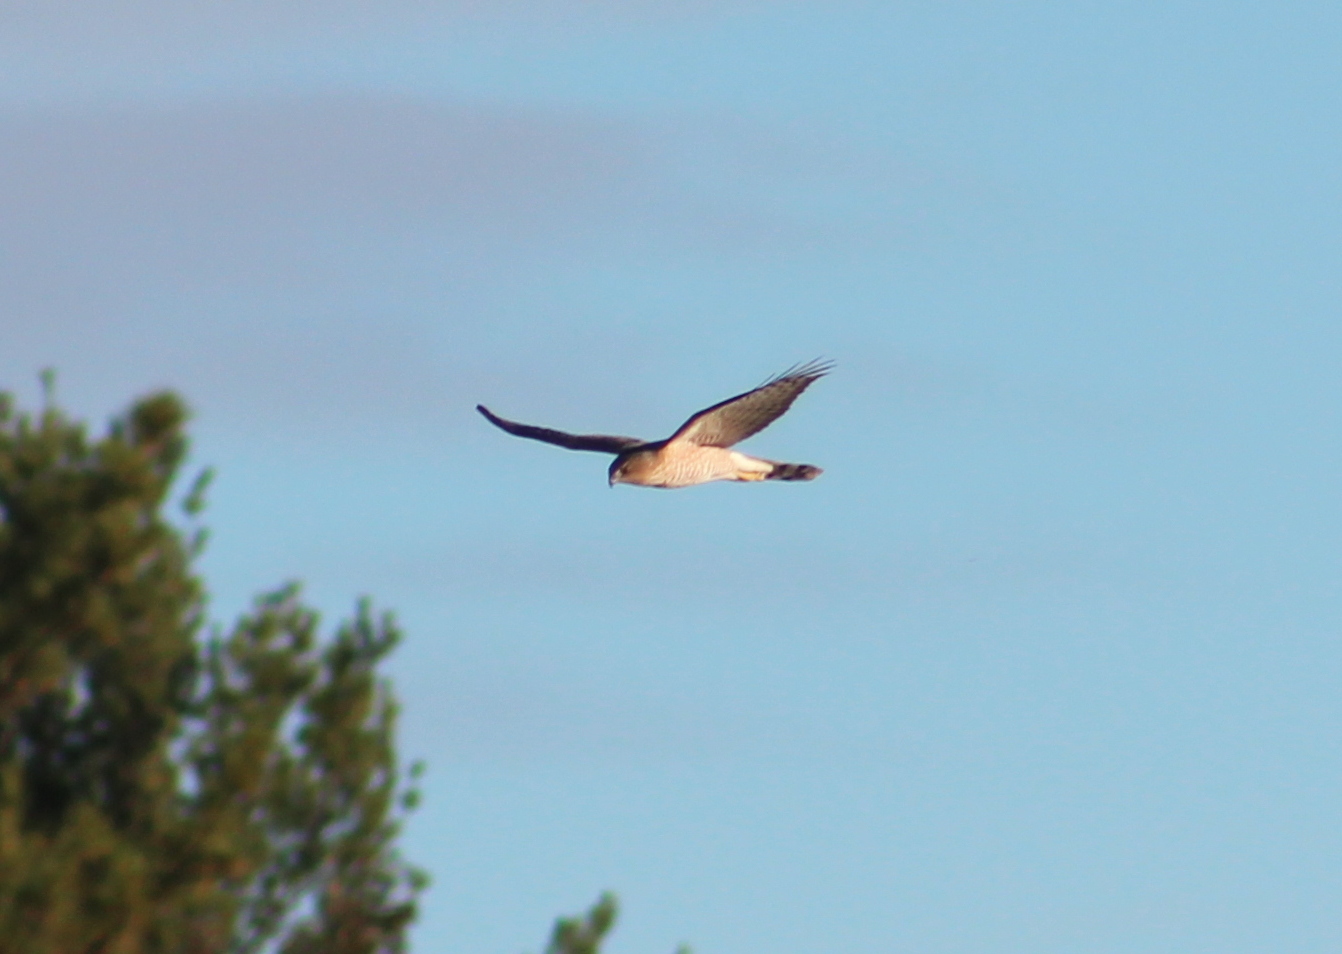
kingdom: Animalia
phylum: Chordata
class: Aves
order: Accipitriformes
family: Accipitridae
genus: Accipiter
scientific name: Accipiter cooperii
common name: Cooper's hawk
